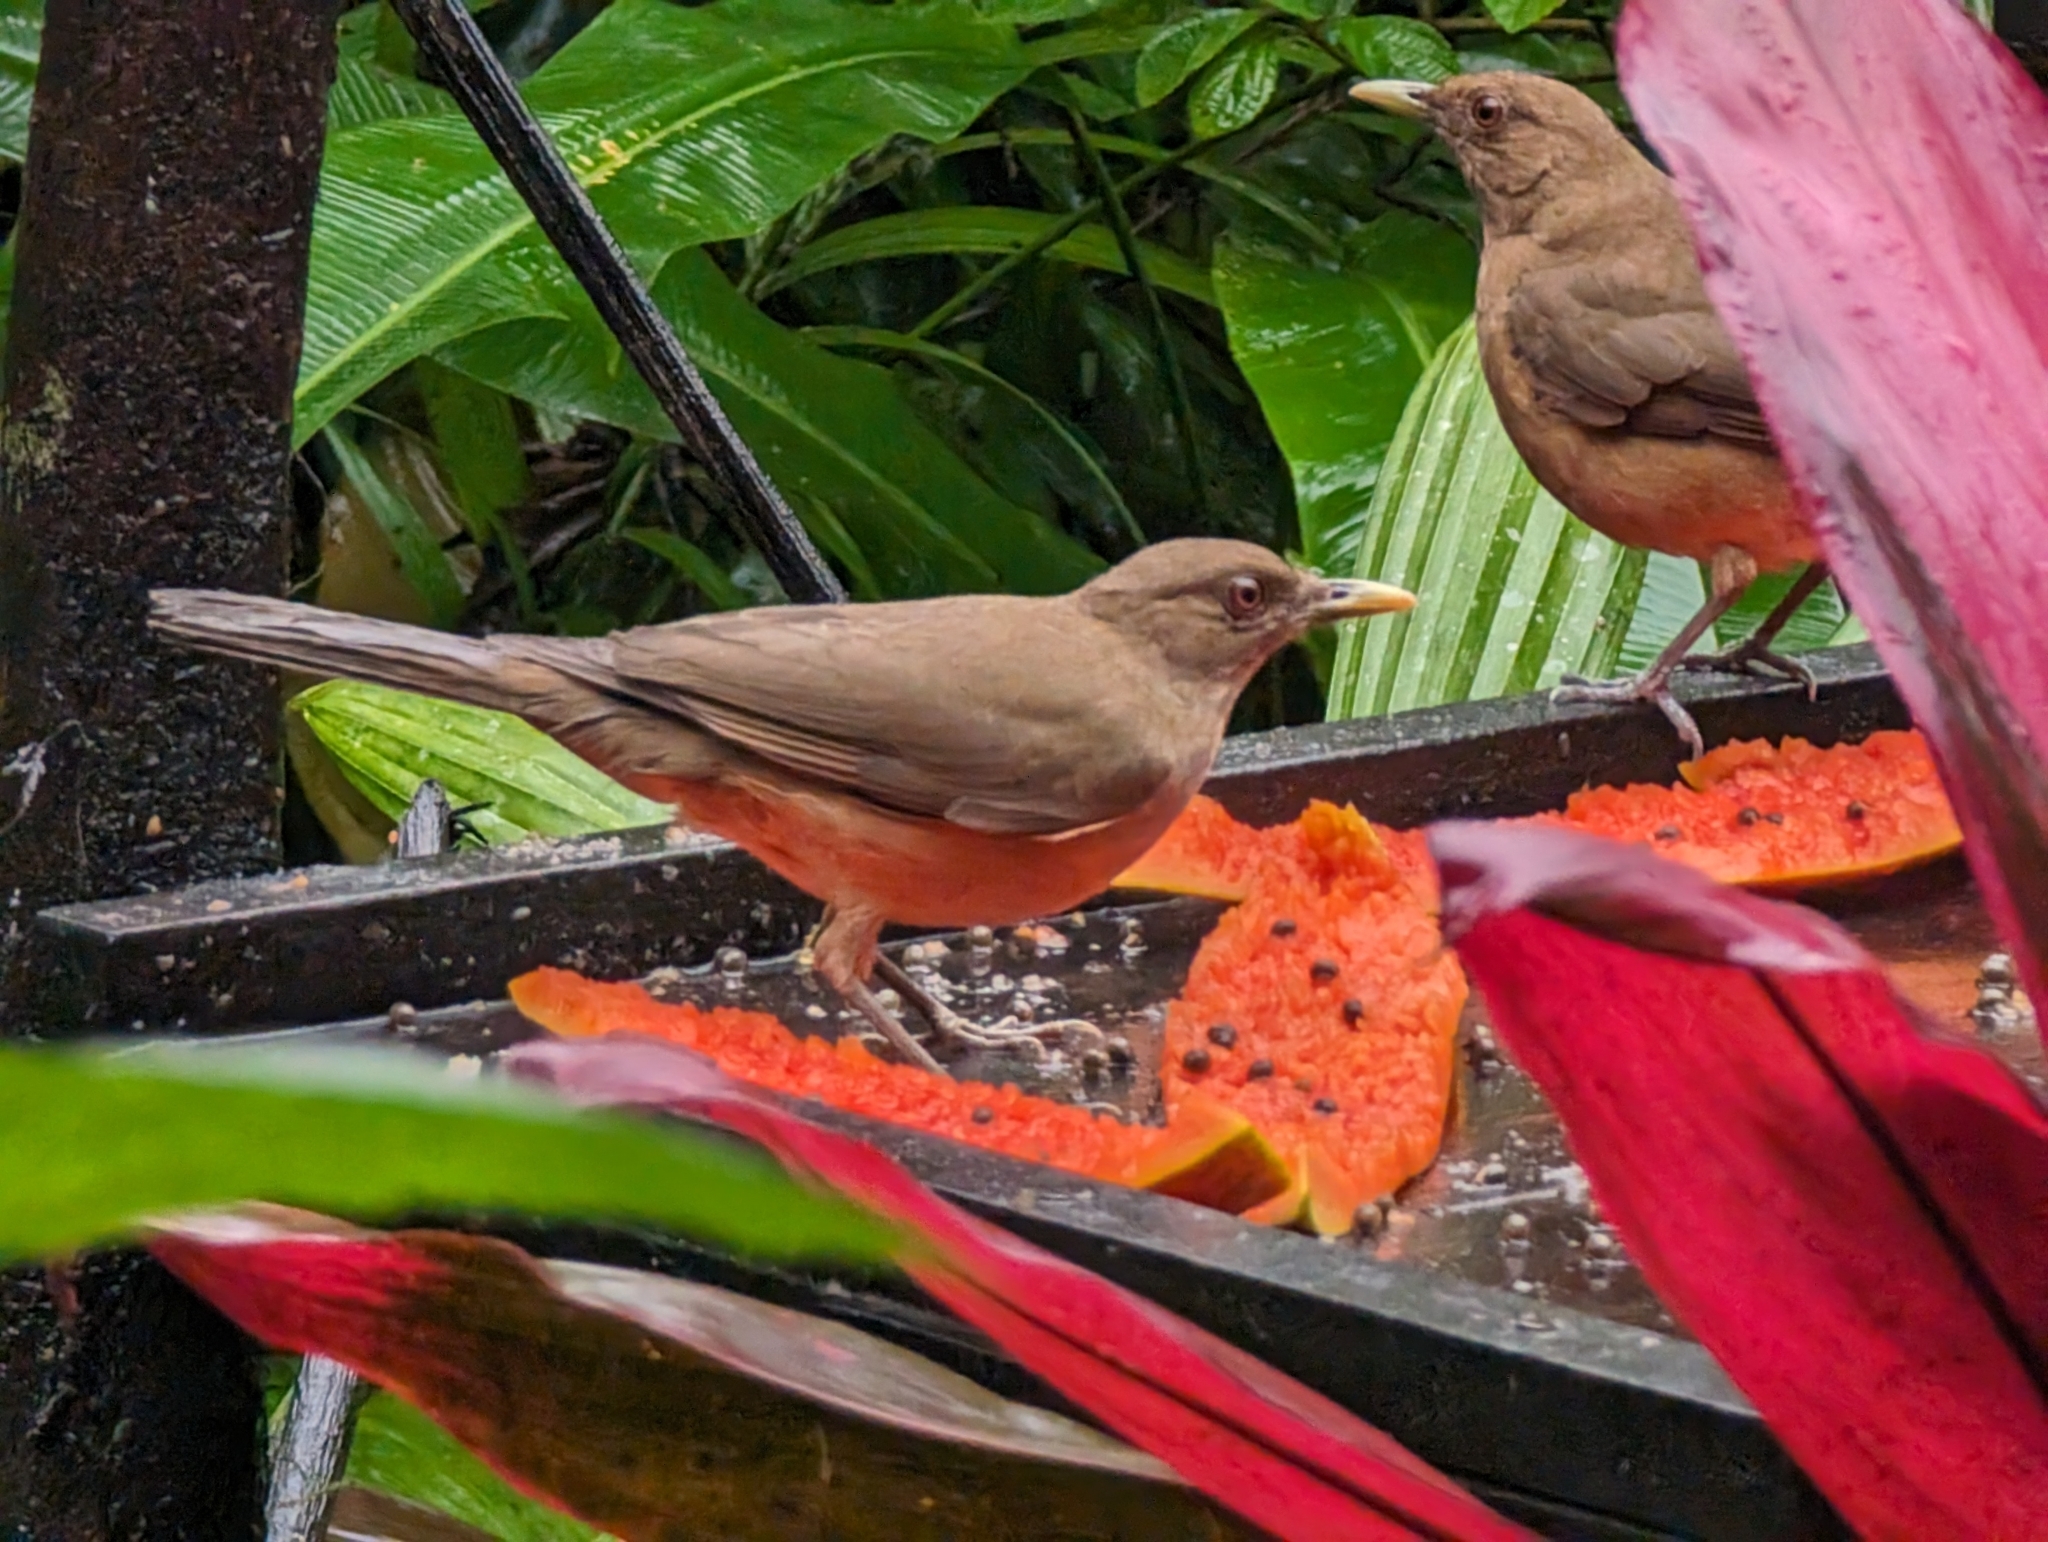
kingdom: Animalia
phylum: Chordata
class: Aves
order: Passeriformes
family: Turdidae
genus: Turdus
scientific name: Turdus grayi
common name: Clay-colored thrush
